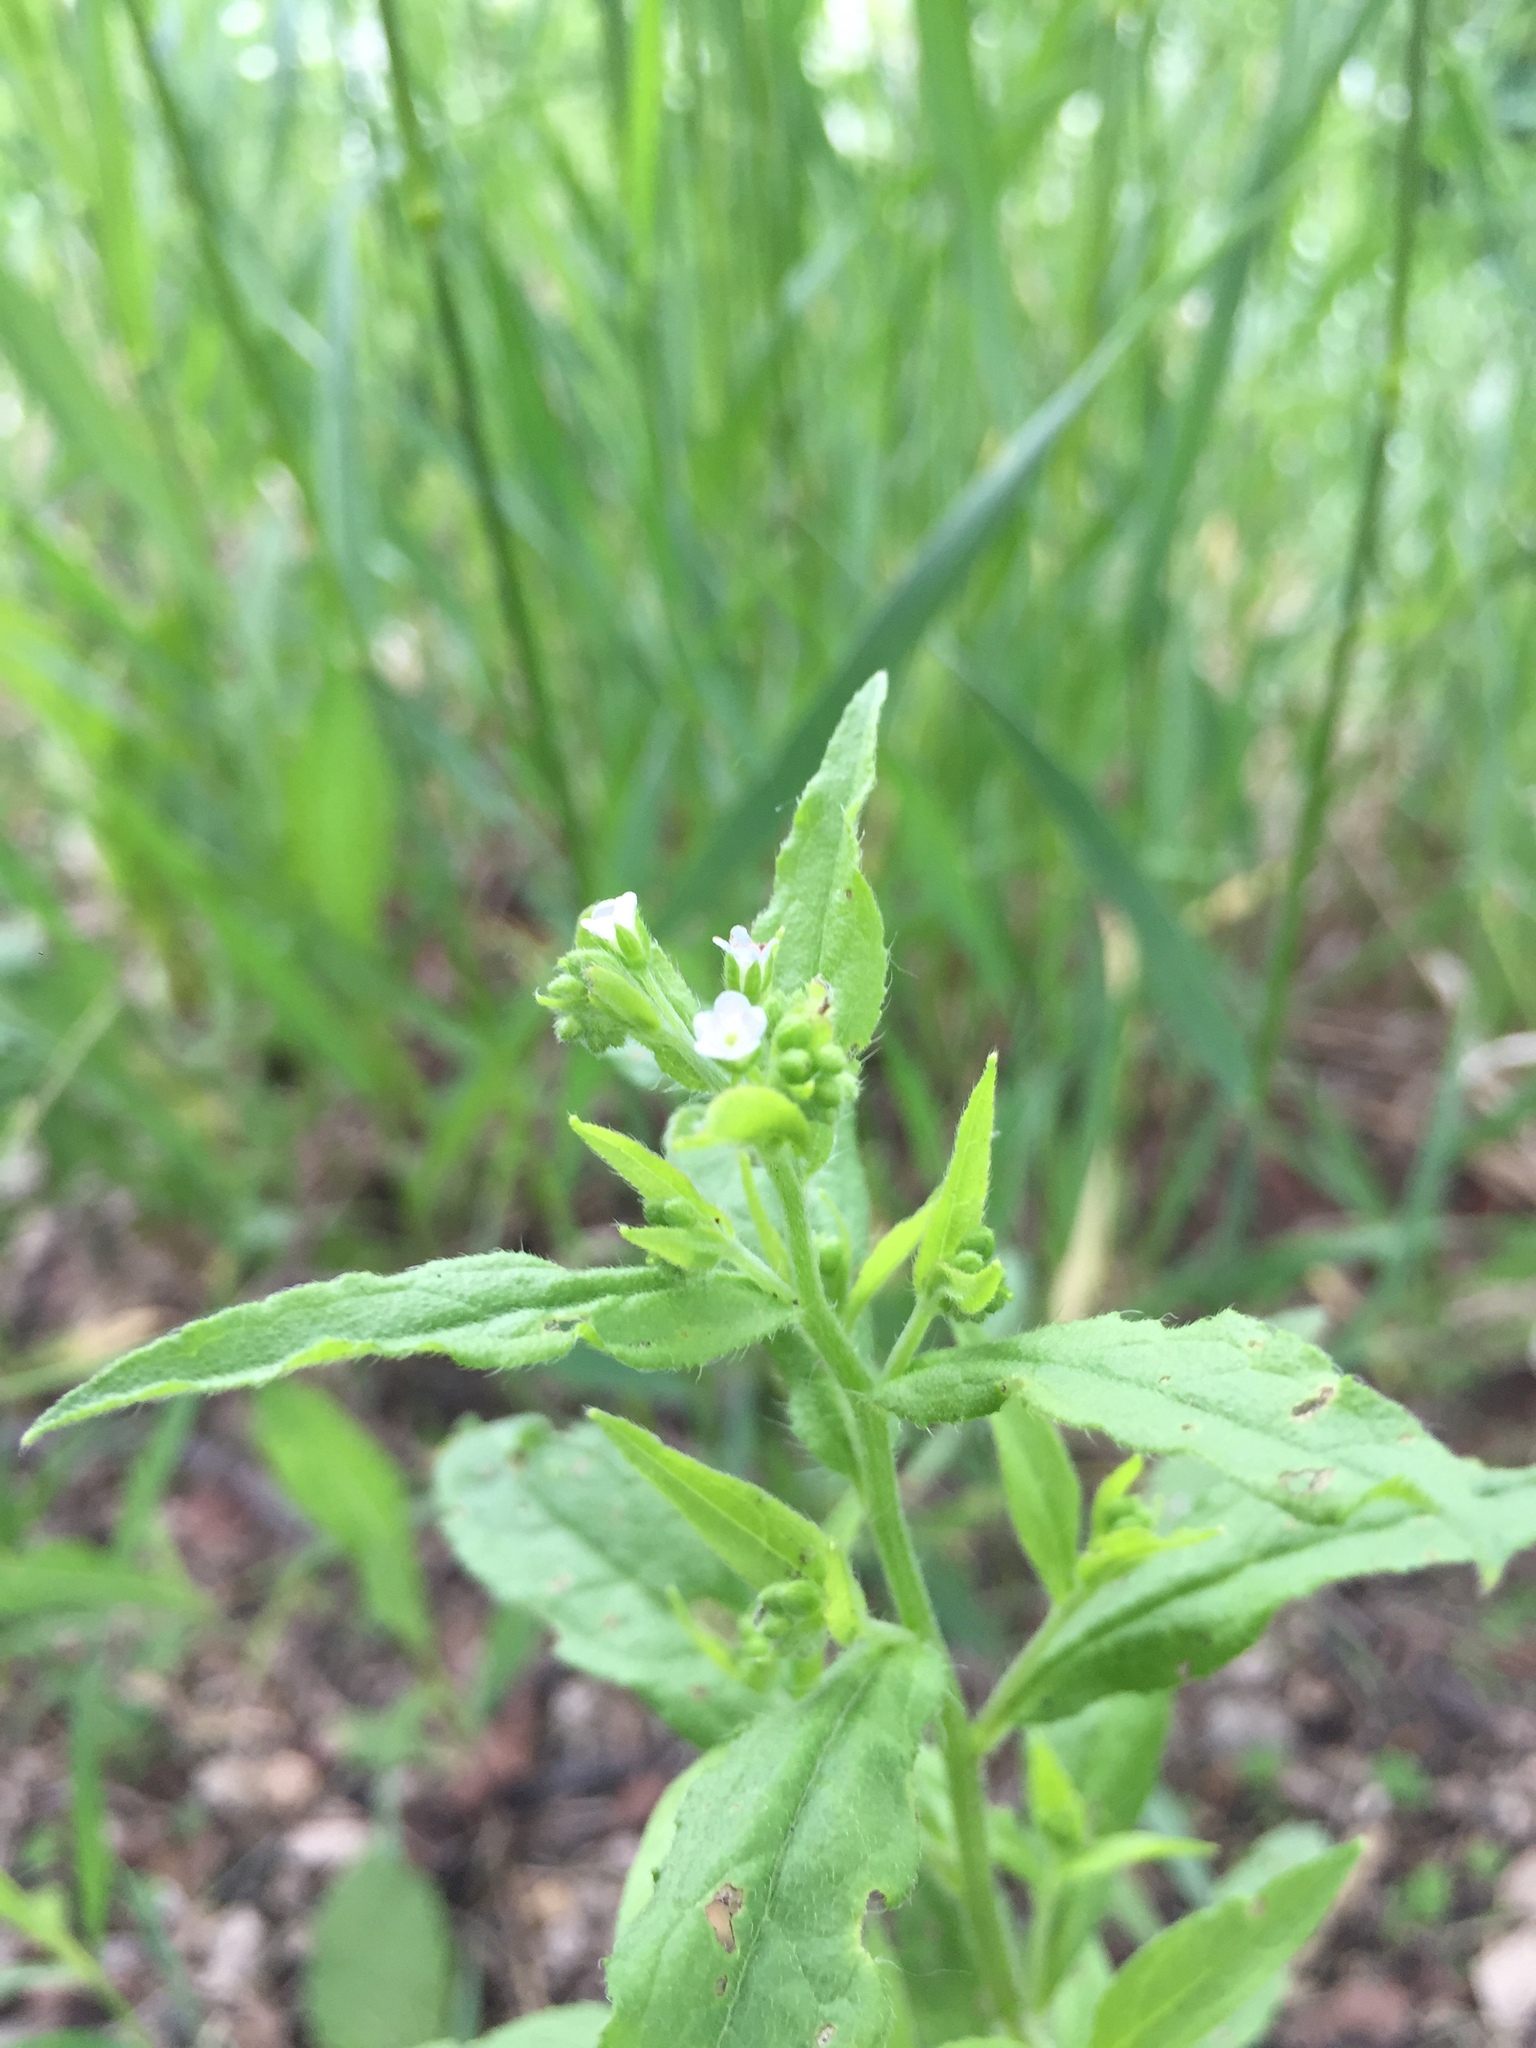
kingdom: Plantae
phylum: Tracheophyta
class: Magnoliopsida
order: Boraginales
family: Boraginaceae
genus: Hackelia
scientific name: Hackelia deflexa
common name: Nodding stickseed
